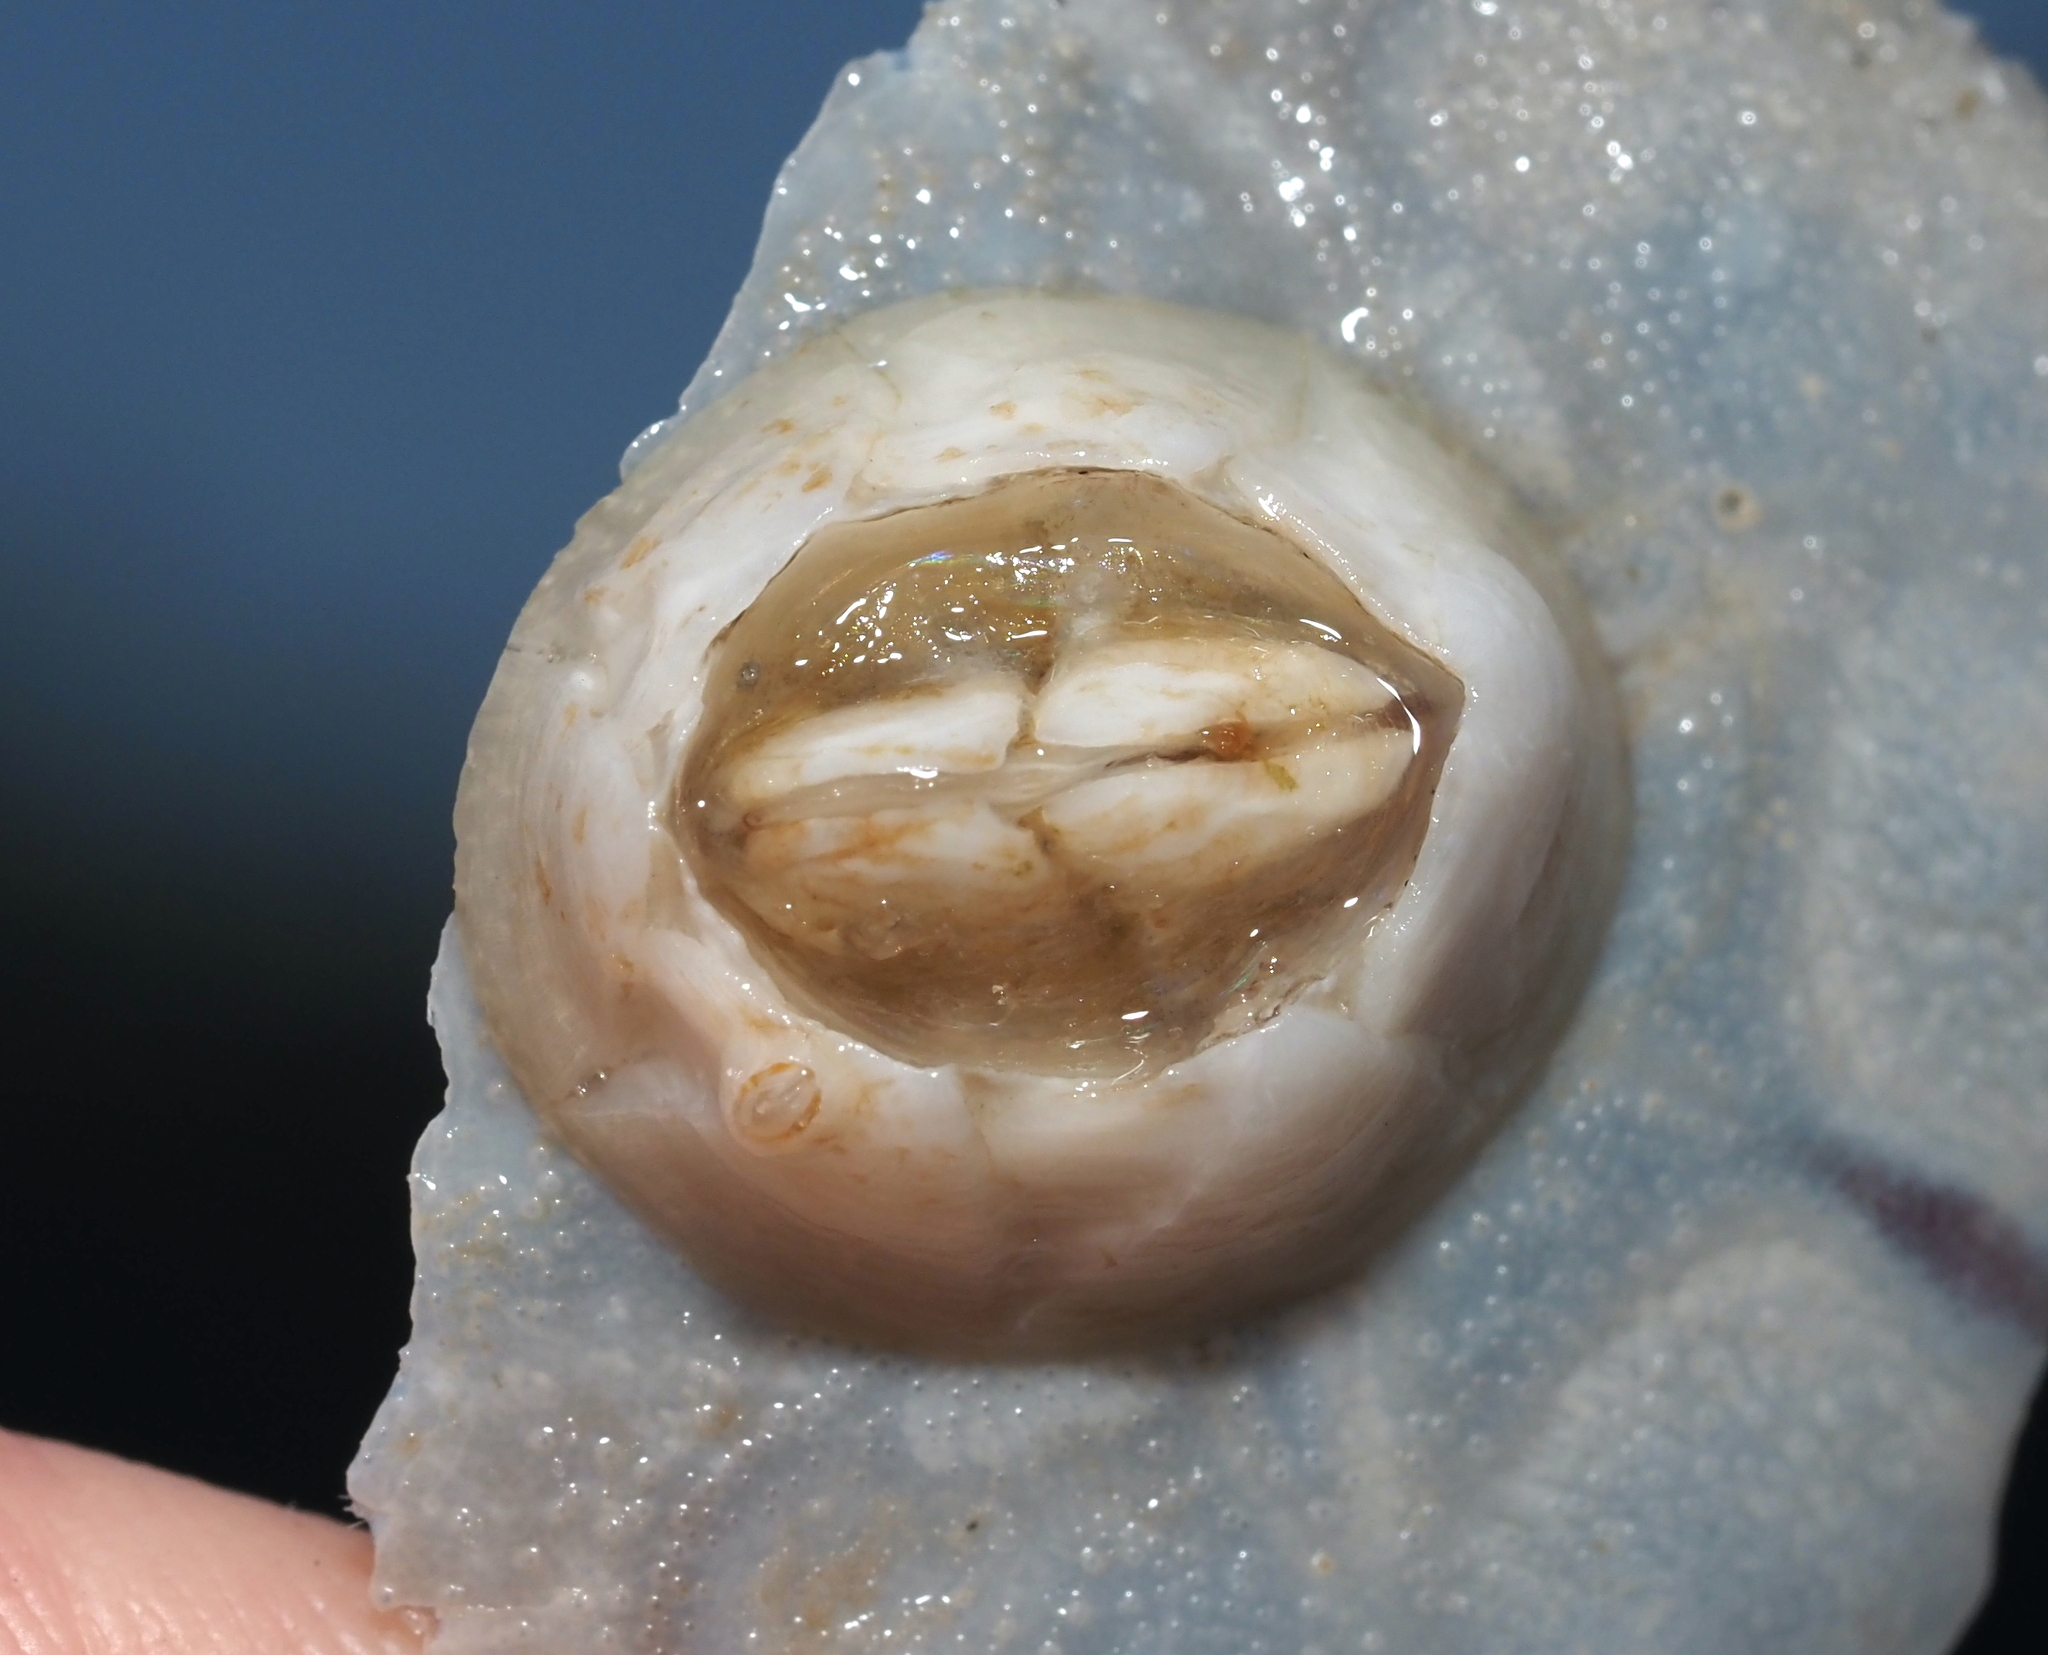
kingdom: Animalia
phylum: Arthropoda
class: Maxillopoda
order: Sessilia
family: Chelonibiidae
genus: Chelonibia
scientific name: Chelonibia testudinaria
